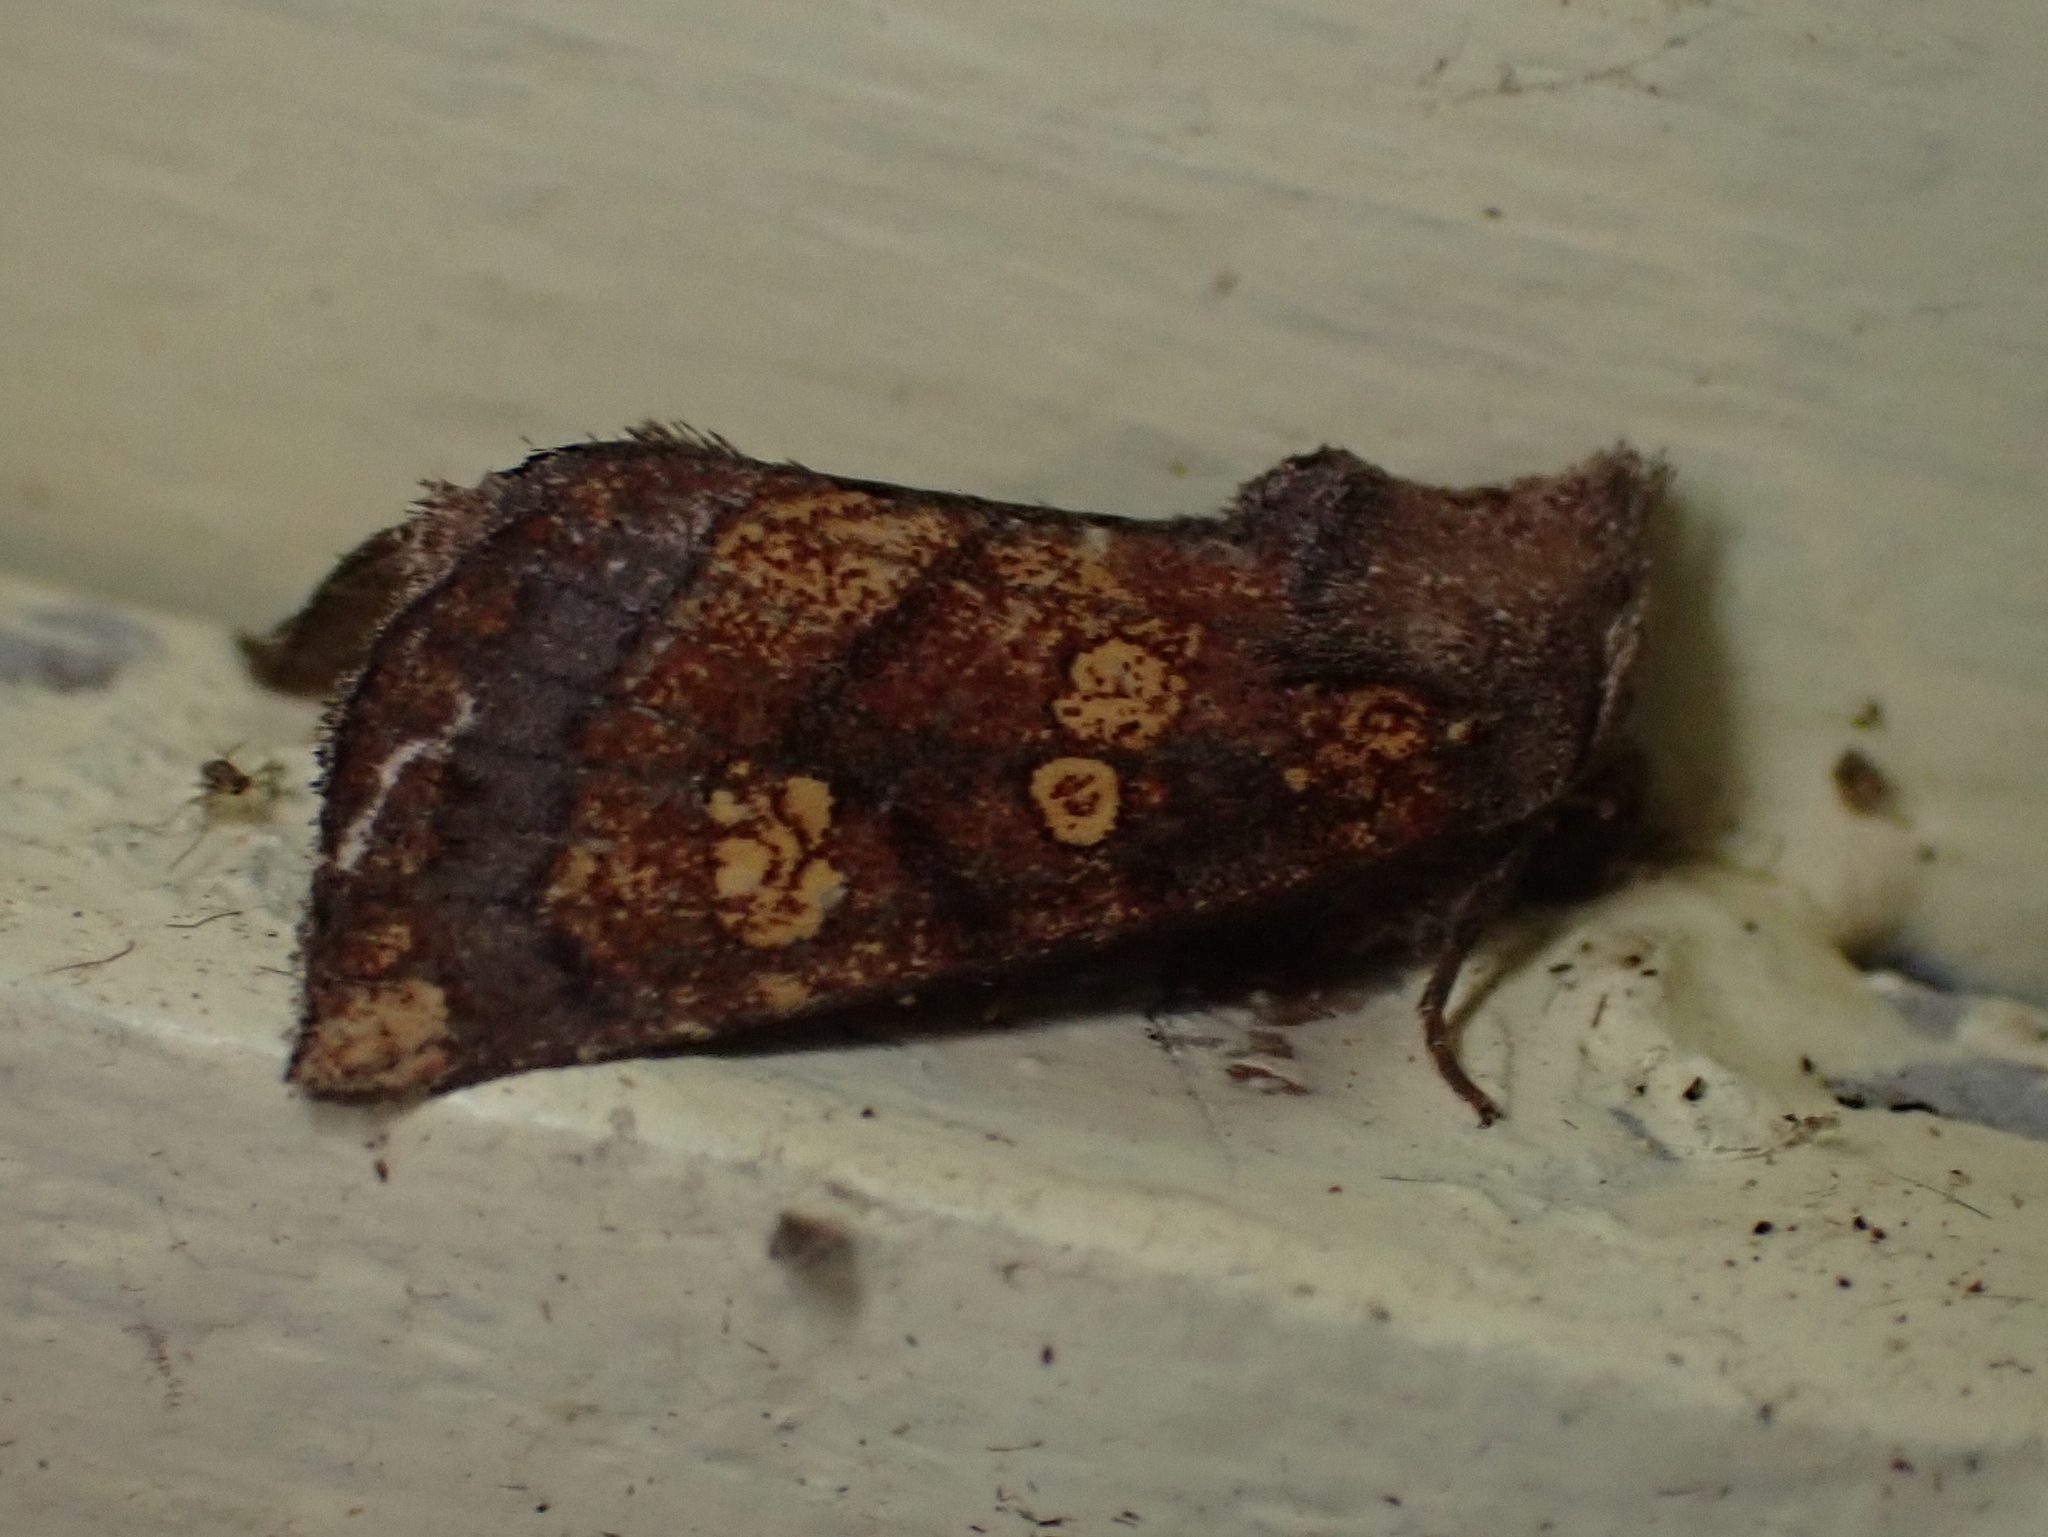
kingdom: Animalia
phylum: Arthropoda
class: Insecta
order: Lepidoptera
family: Noctuidae
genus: Papaipema
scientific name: Papaipema impecuniosa
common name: Aster borer moth
